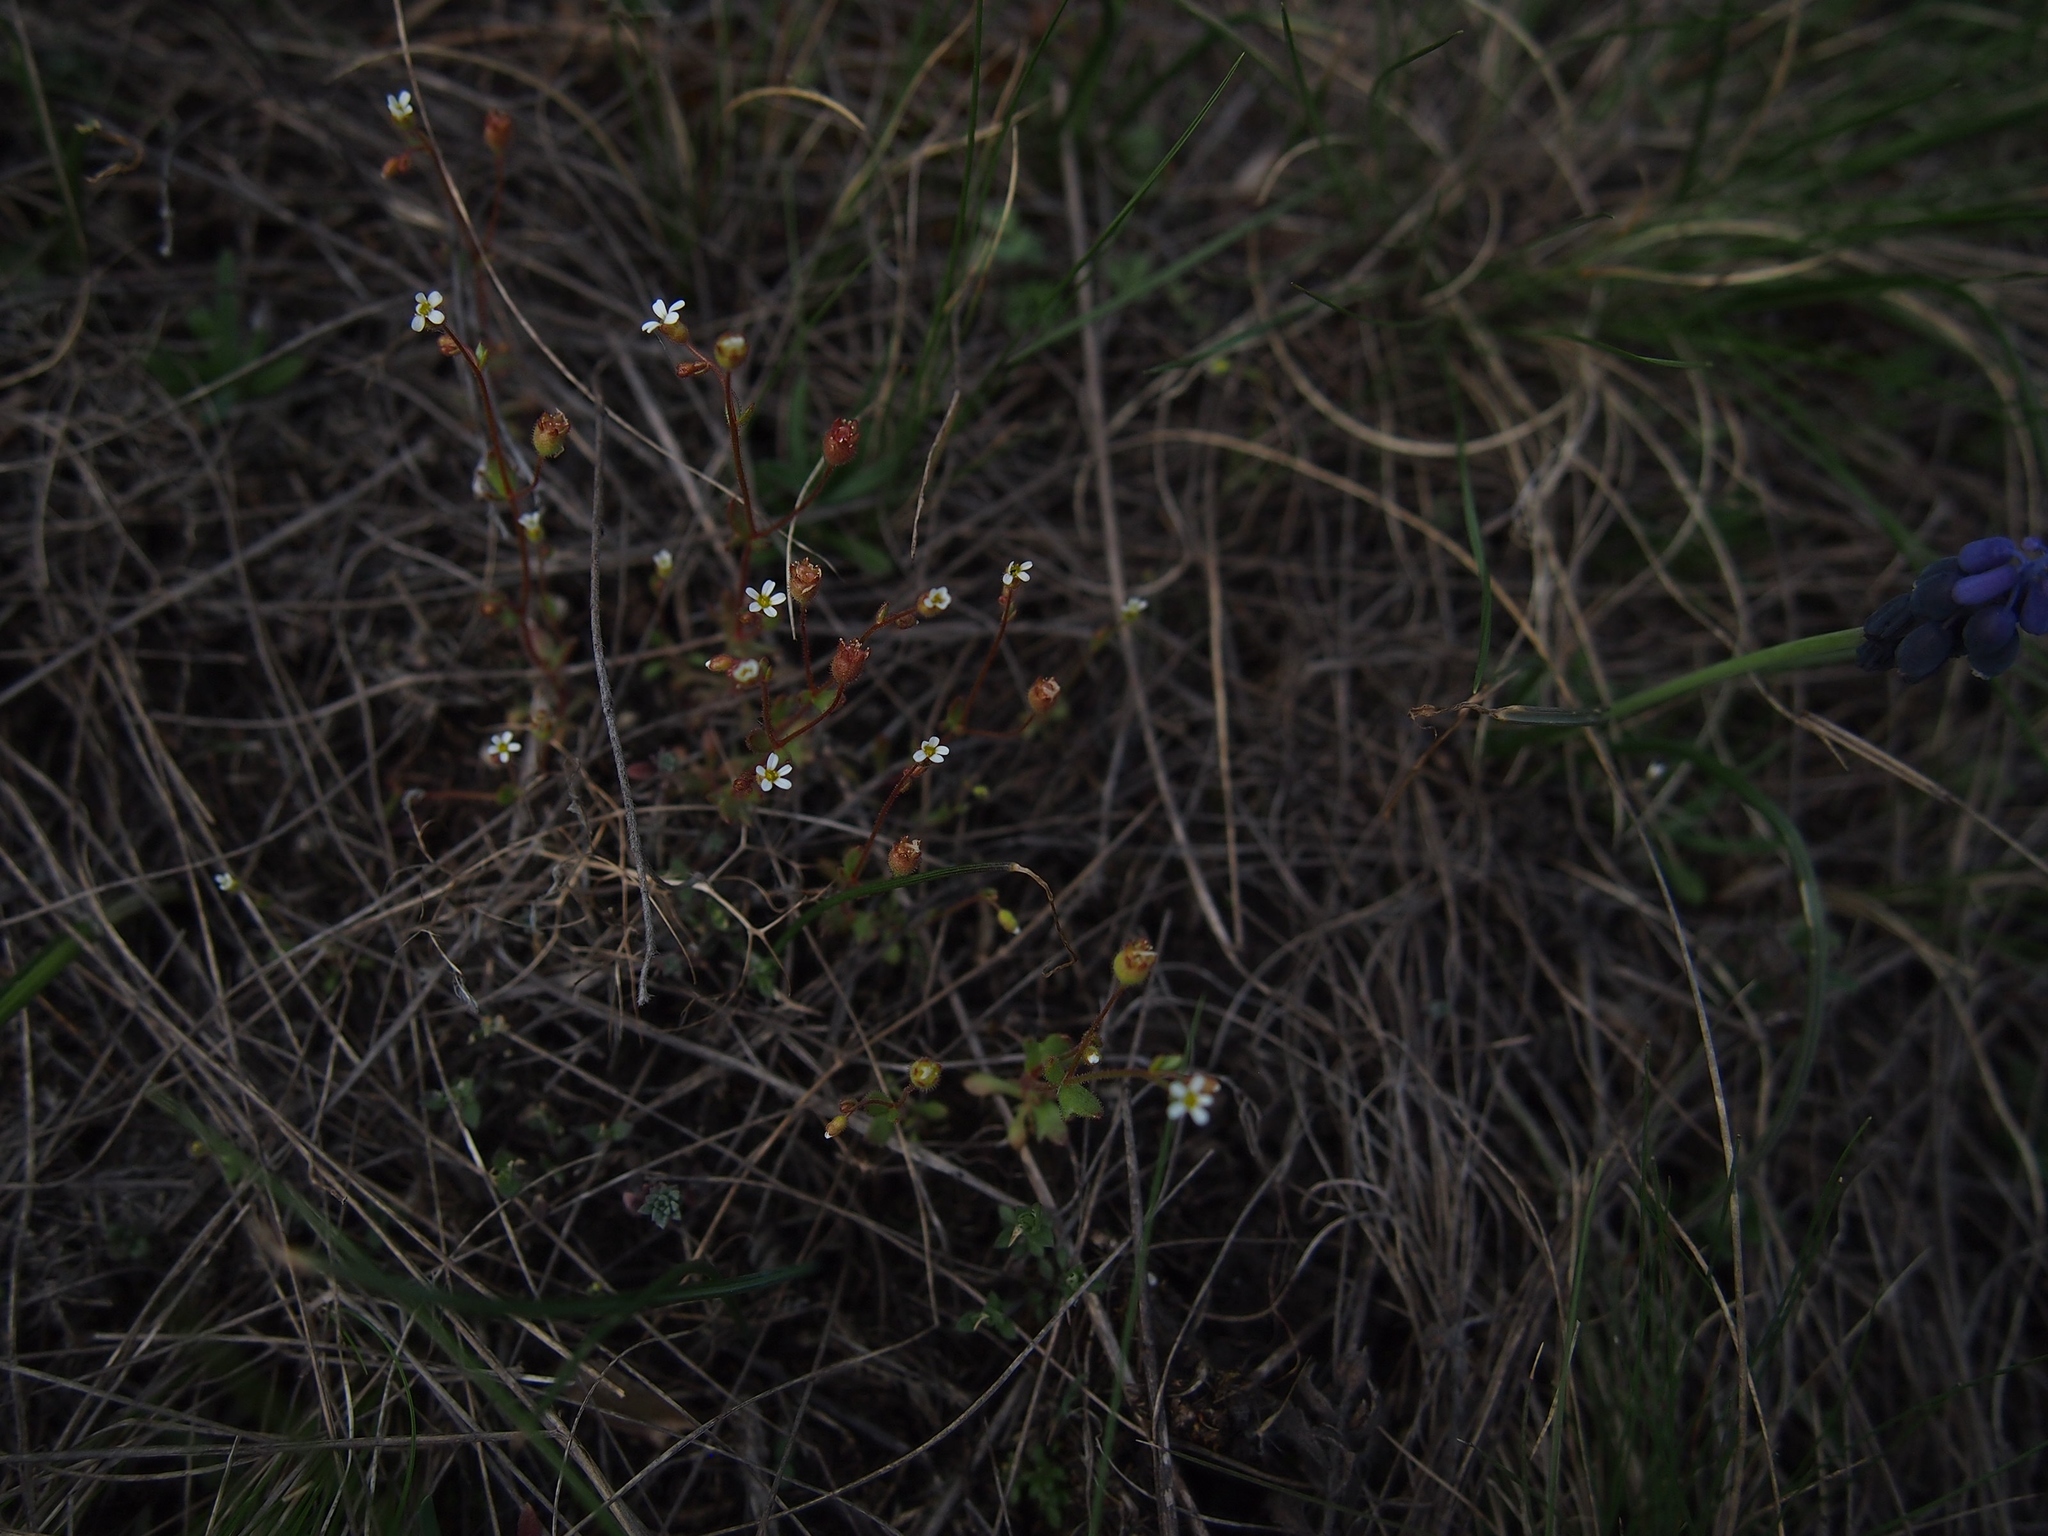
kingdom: Plantae
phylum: Tracheophyta
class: Magnoliopsida
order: Saxifragales
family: Saxifragaceae
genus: Saxifraga
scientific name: Saxifraga tridactylites
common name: Rue-leaved saxifrage
